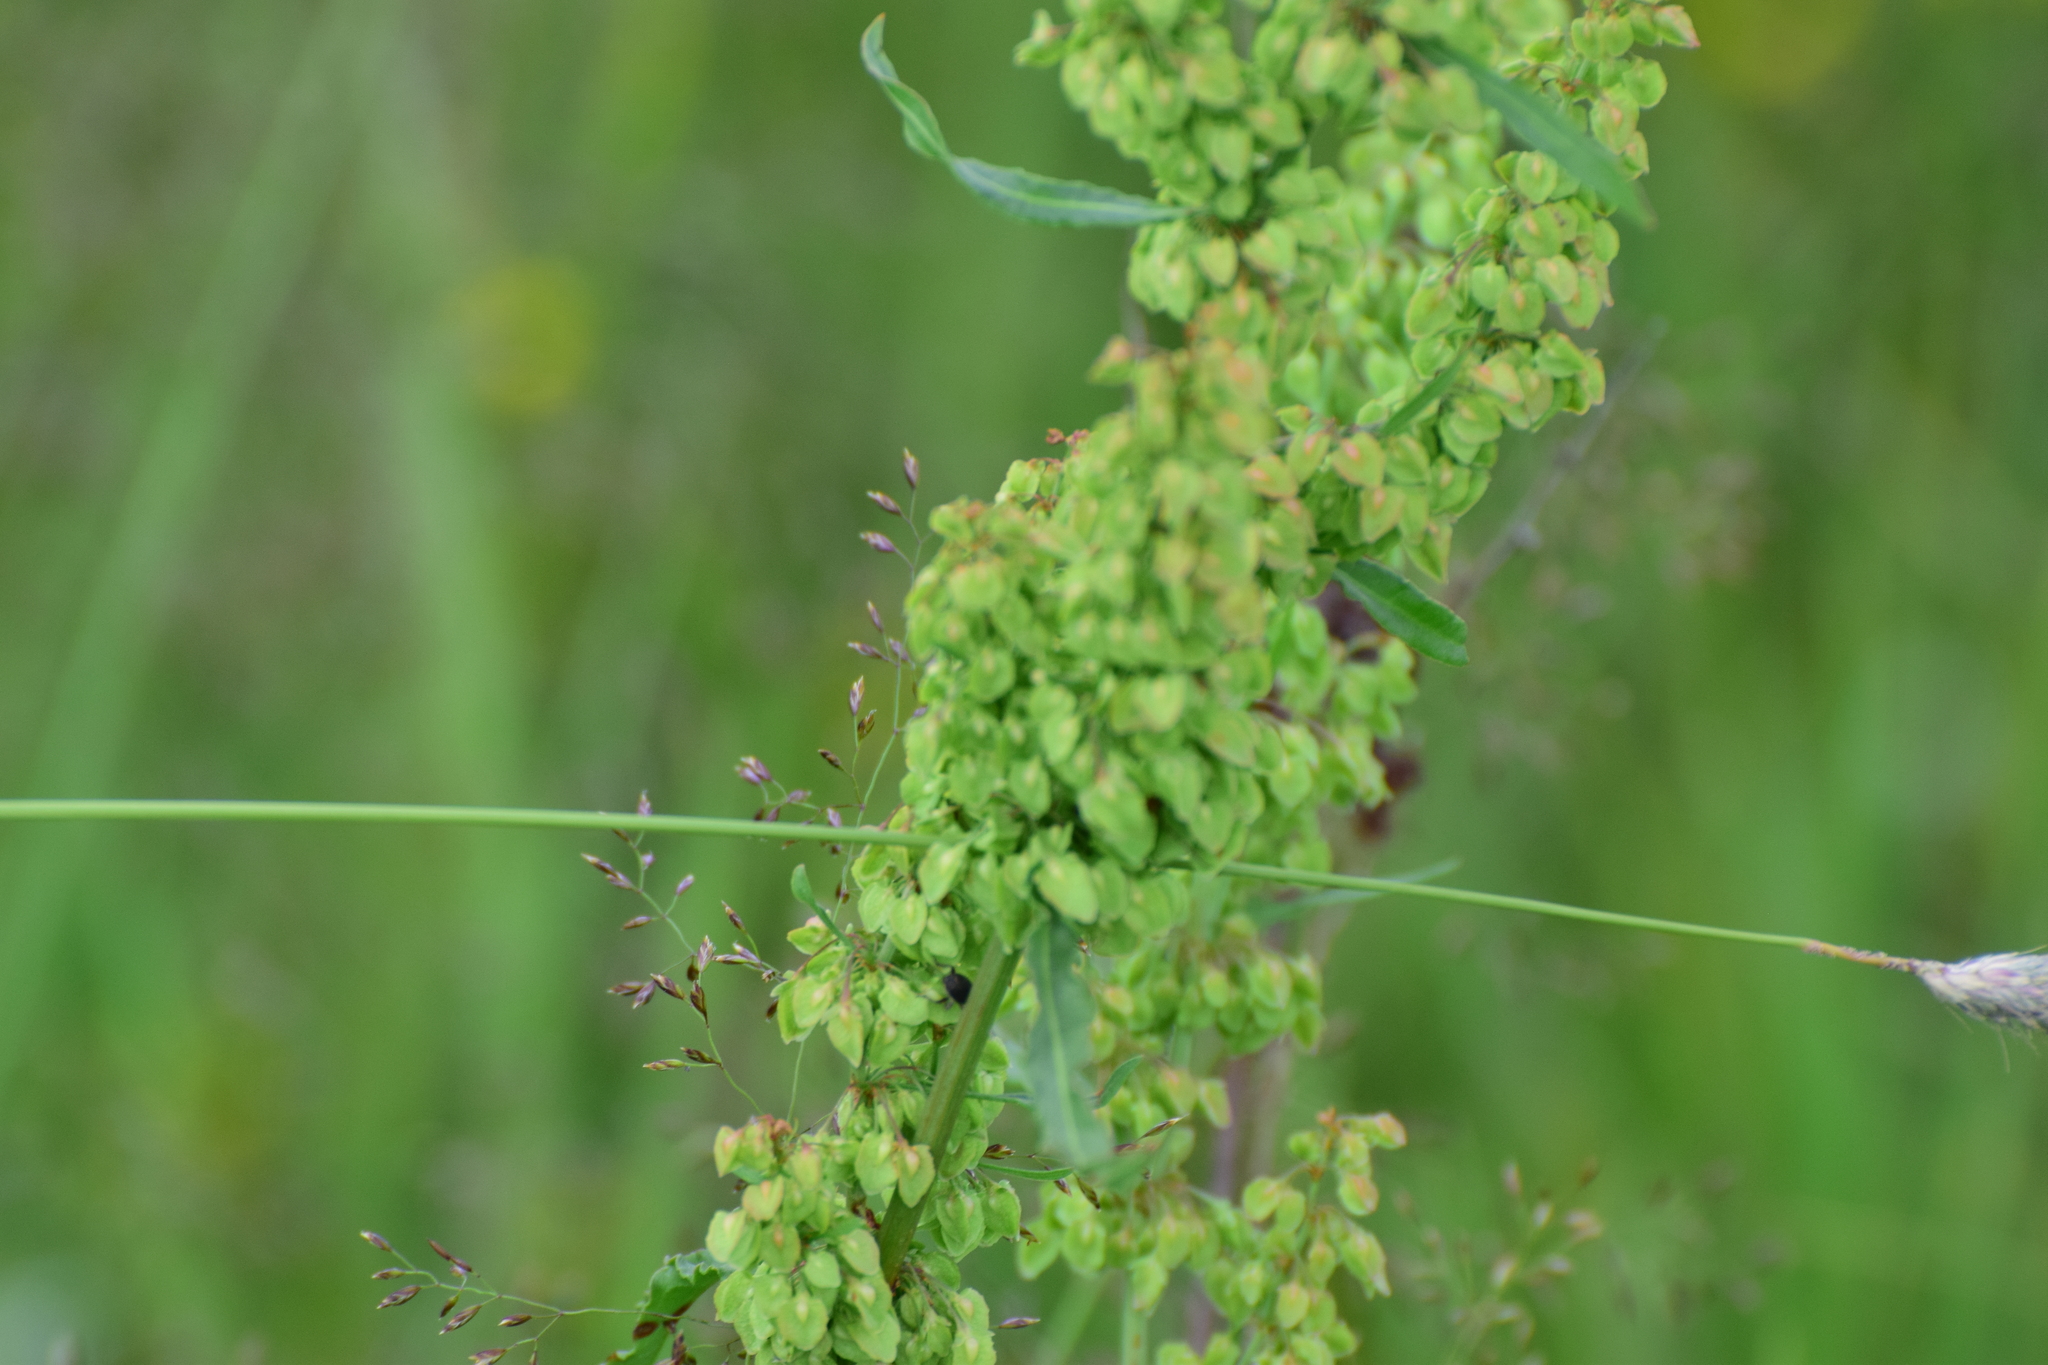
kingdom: Plantae
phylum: Tracheophyta
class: Magnoliopsida
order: Caryophyllales
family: Polygonaceae
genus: Rumex
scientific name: Rumex crispus
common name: Curled dock
